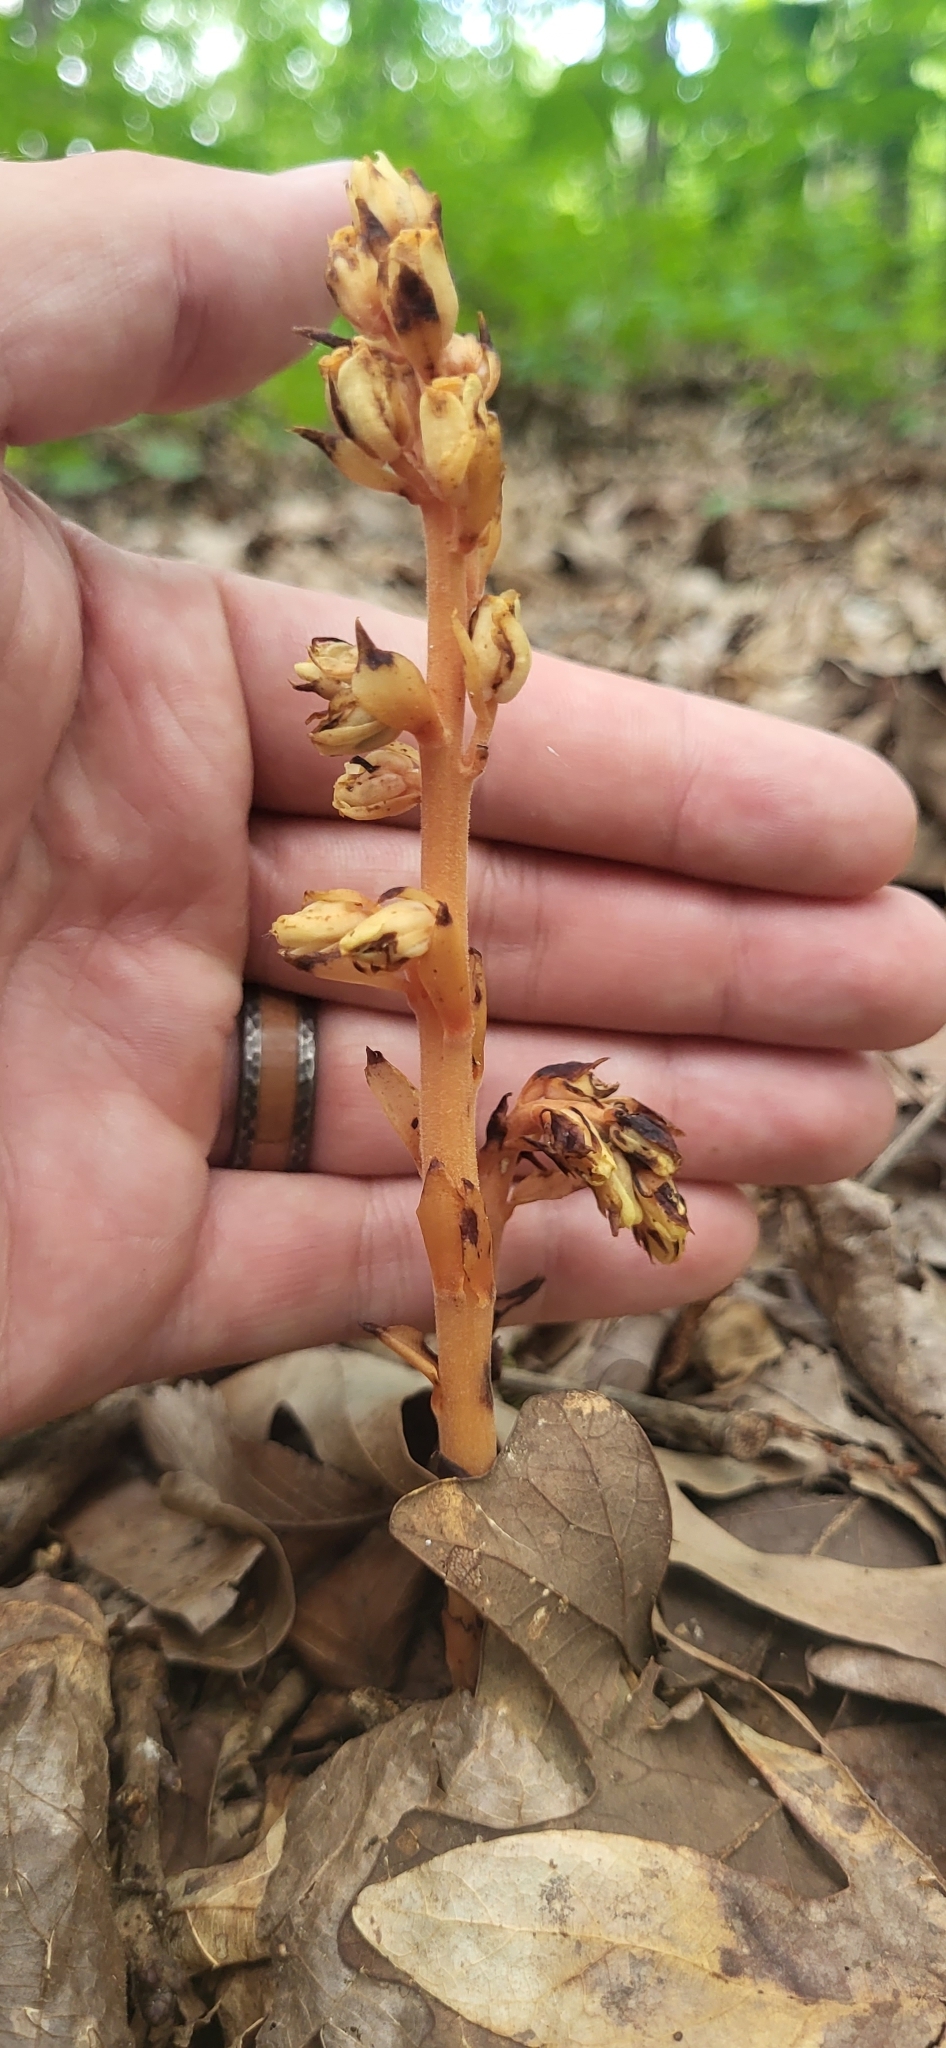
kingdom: Plantae
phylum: Tracheophyta
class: Magnoliopsida
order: Ericales
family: Ericaceae
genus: Hypopitys
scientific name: Hypopitys monotropa
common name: Yellow bird's-nest
